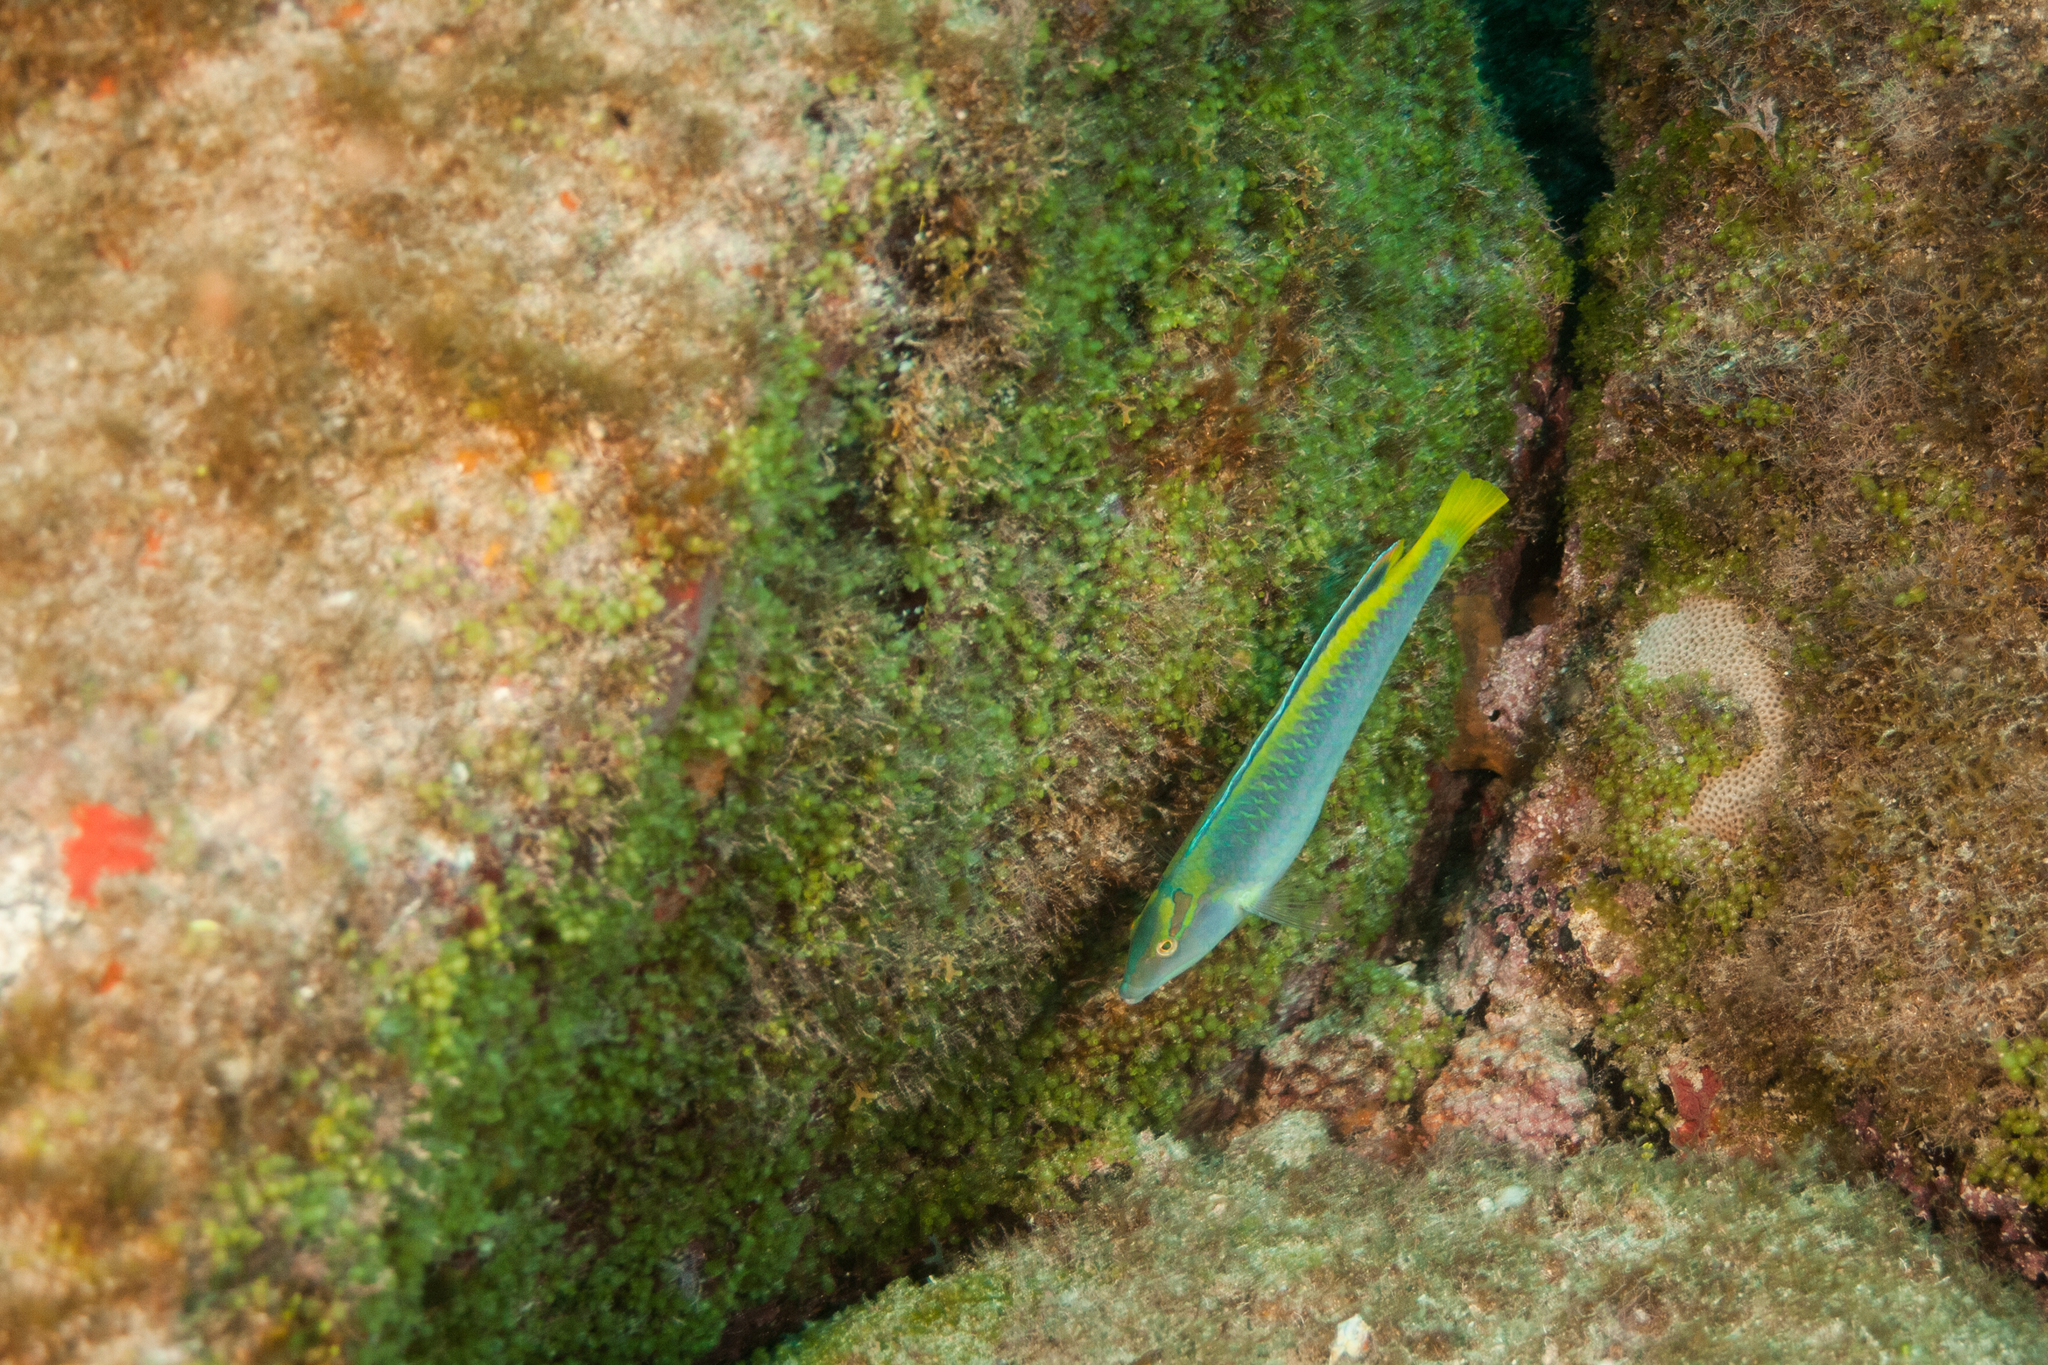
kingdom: Animalia
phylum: Chordata
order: Perciformes
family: Labridae
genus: Halichoeres
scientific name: Halichoeres dimidiatus
